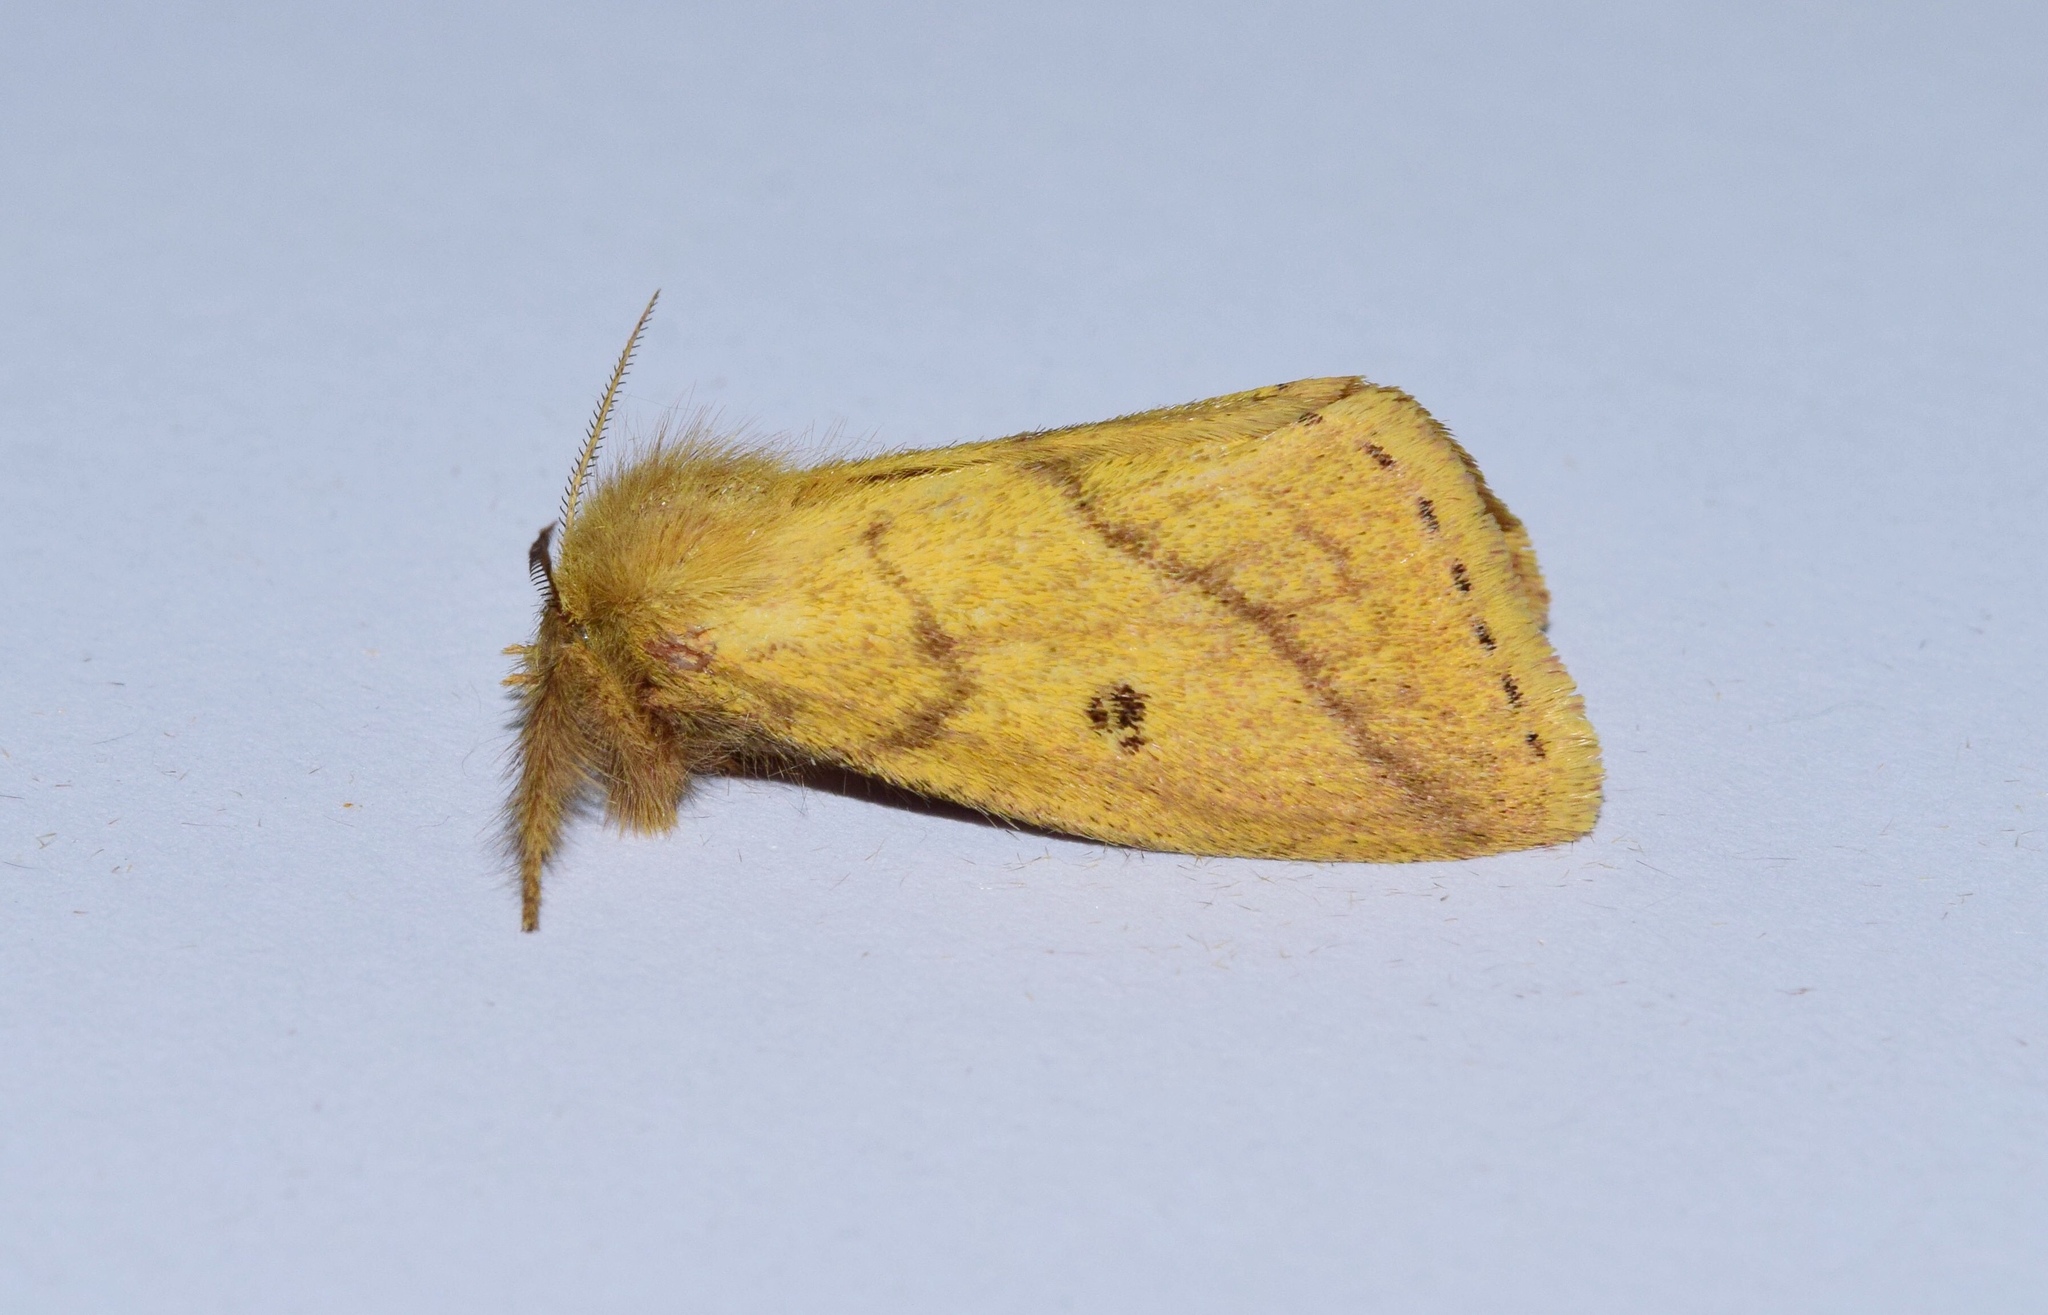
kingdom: Animalia
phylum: Arthropoda
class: Insecta
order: Lepidoptera
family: Erebidae
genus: Aroa
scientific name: Aroa discalis
